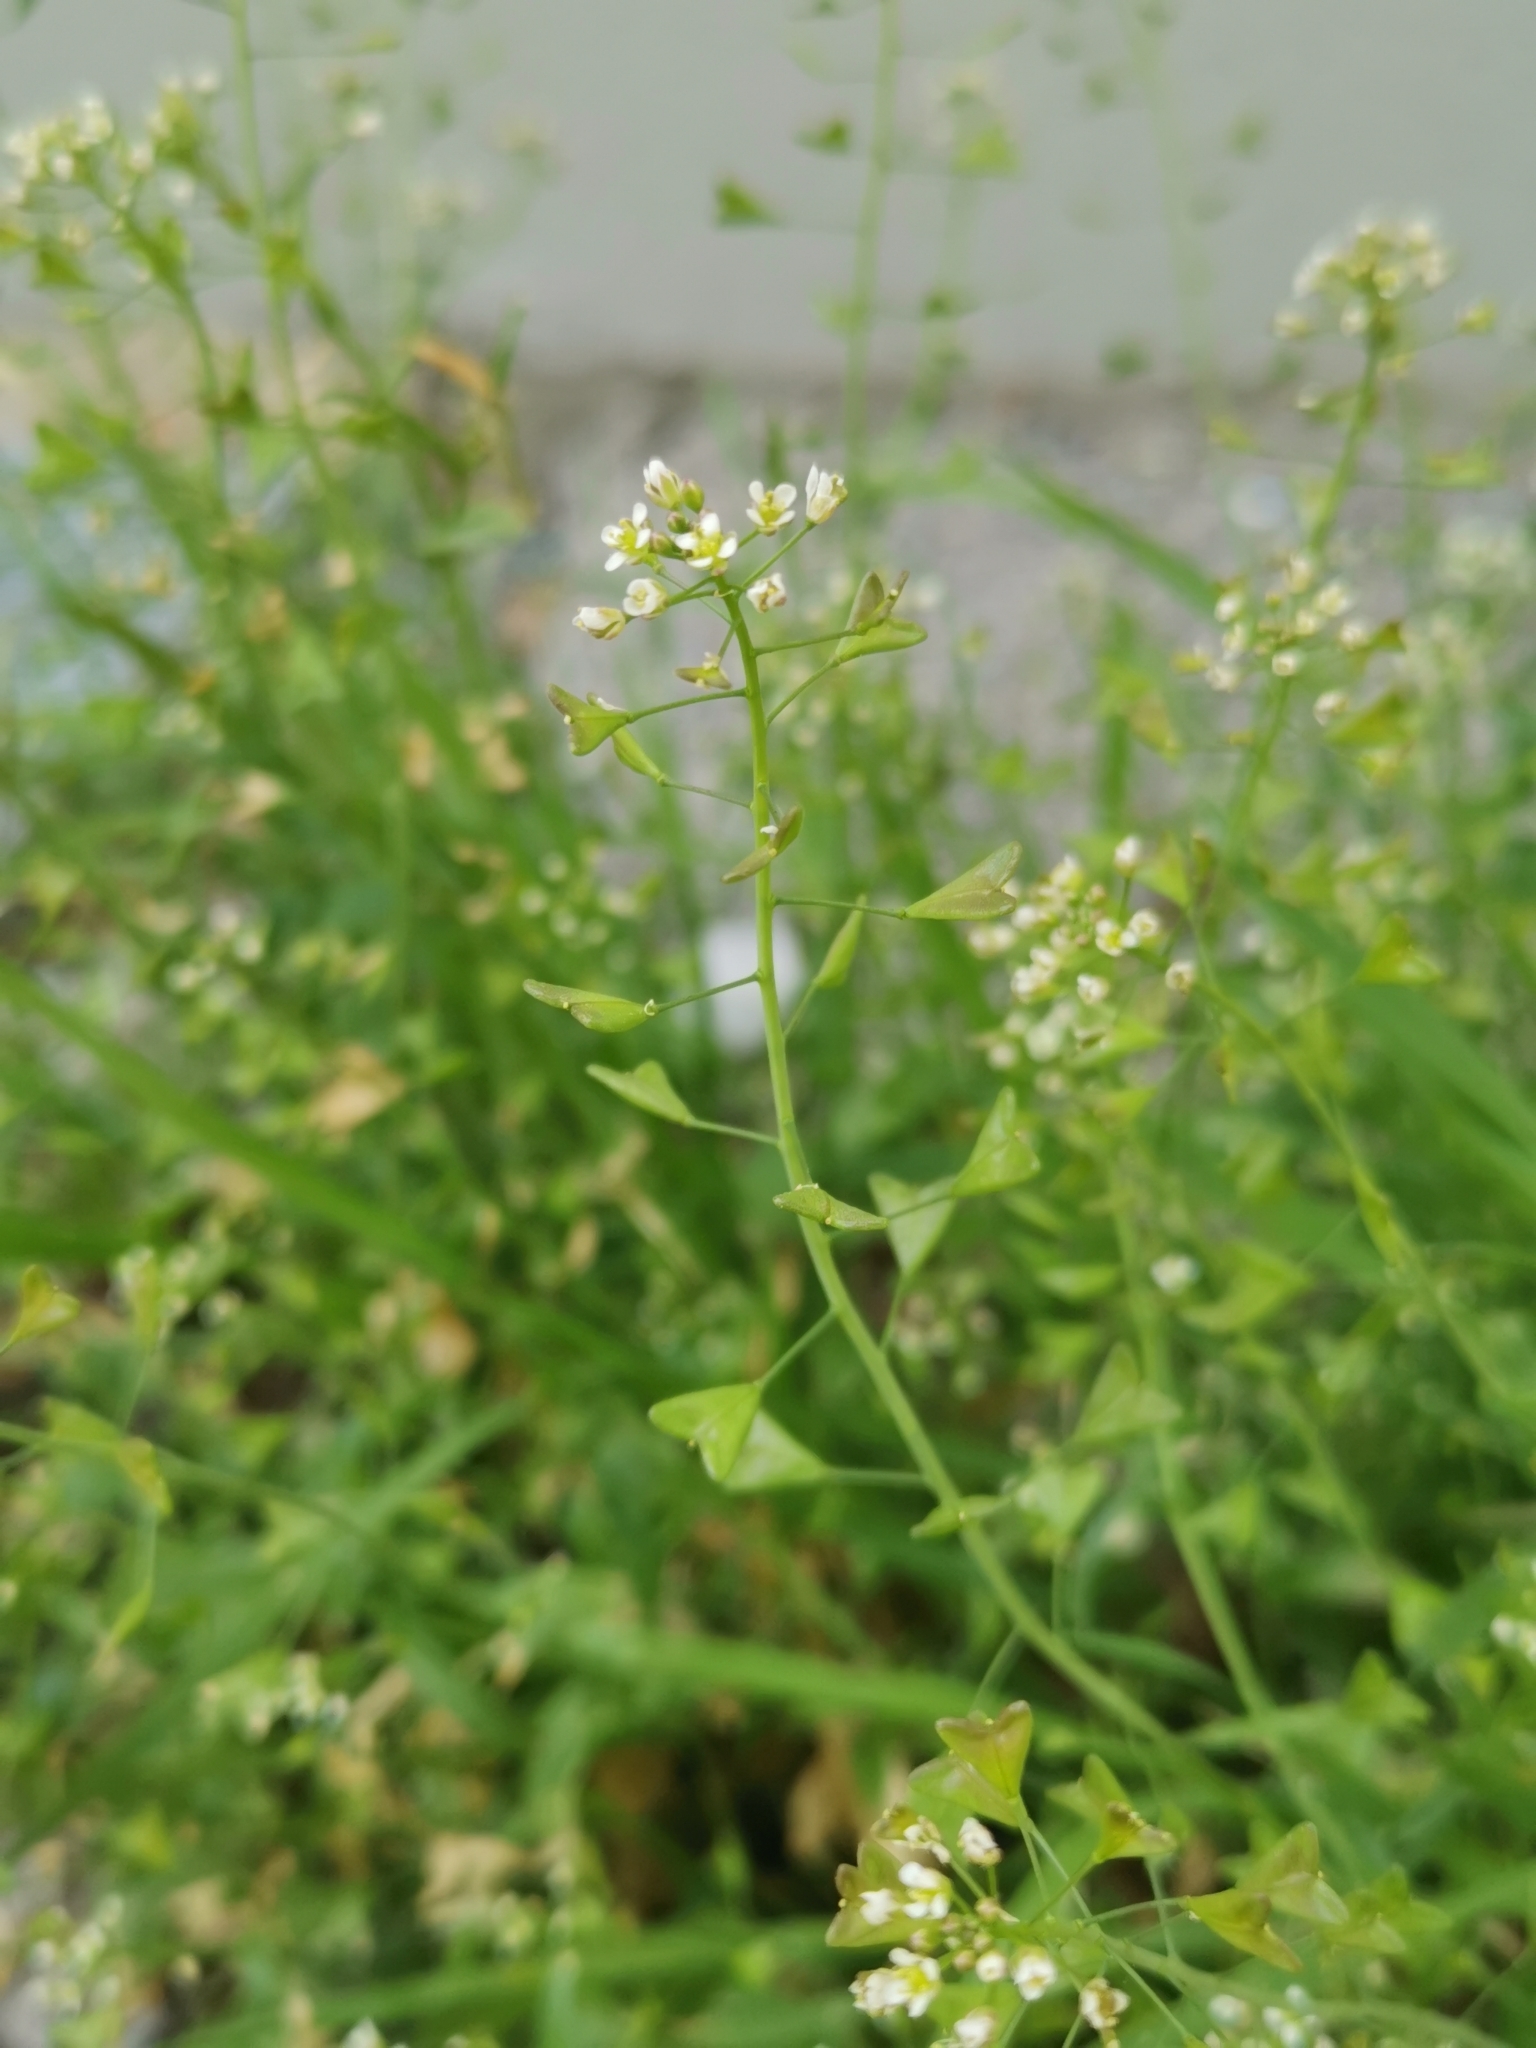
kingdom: Plantae
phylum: Tracheophyta
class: Magnoliopsida
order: Brassicales
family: Brassicaceae
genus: Capsella
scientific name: Capsella bursa-pastoris
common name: Shepherd's purse
